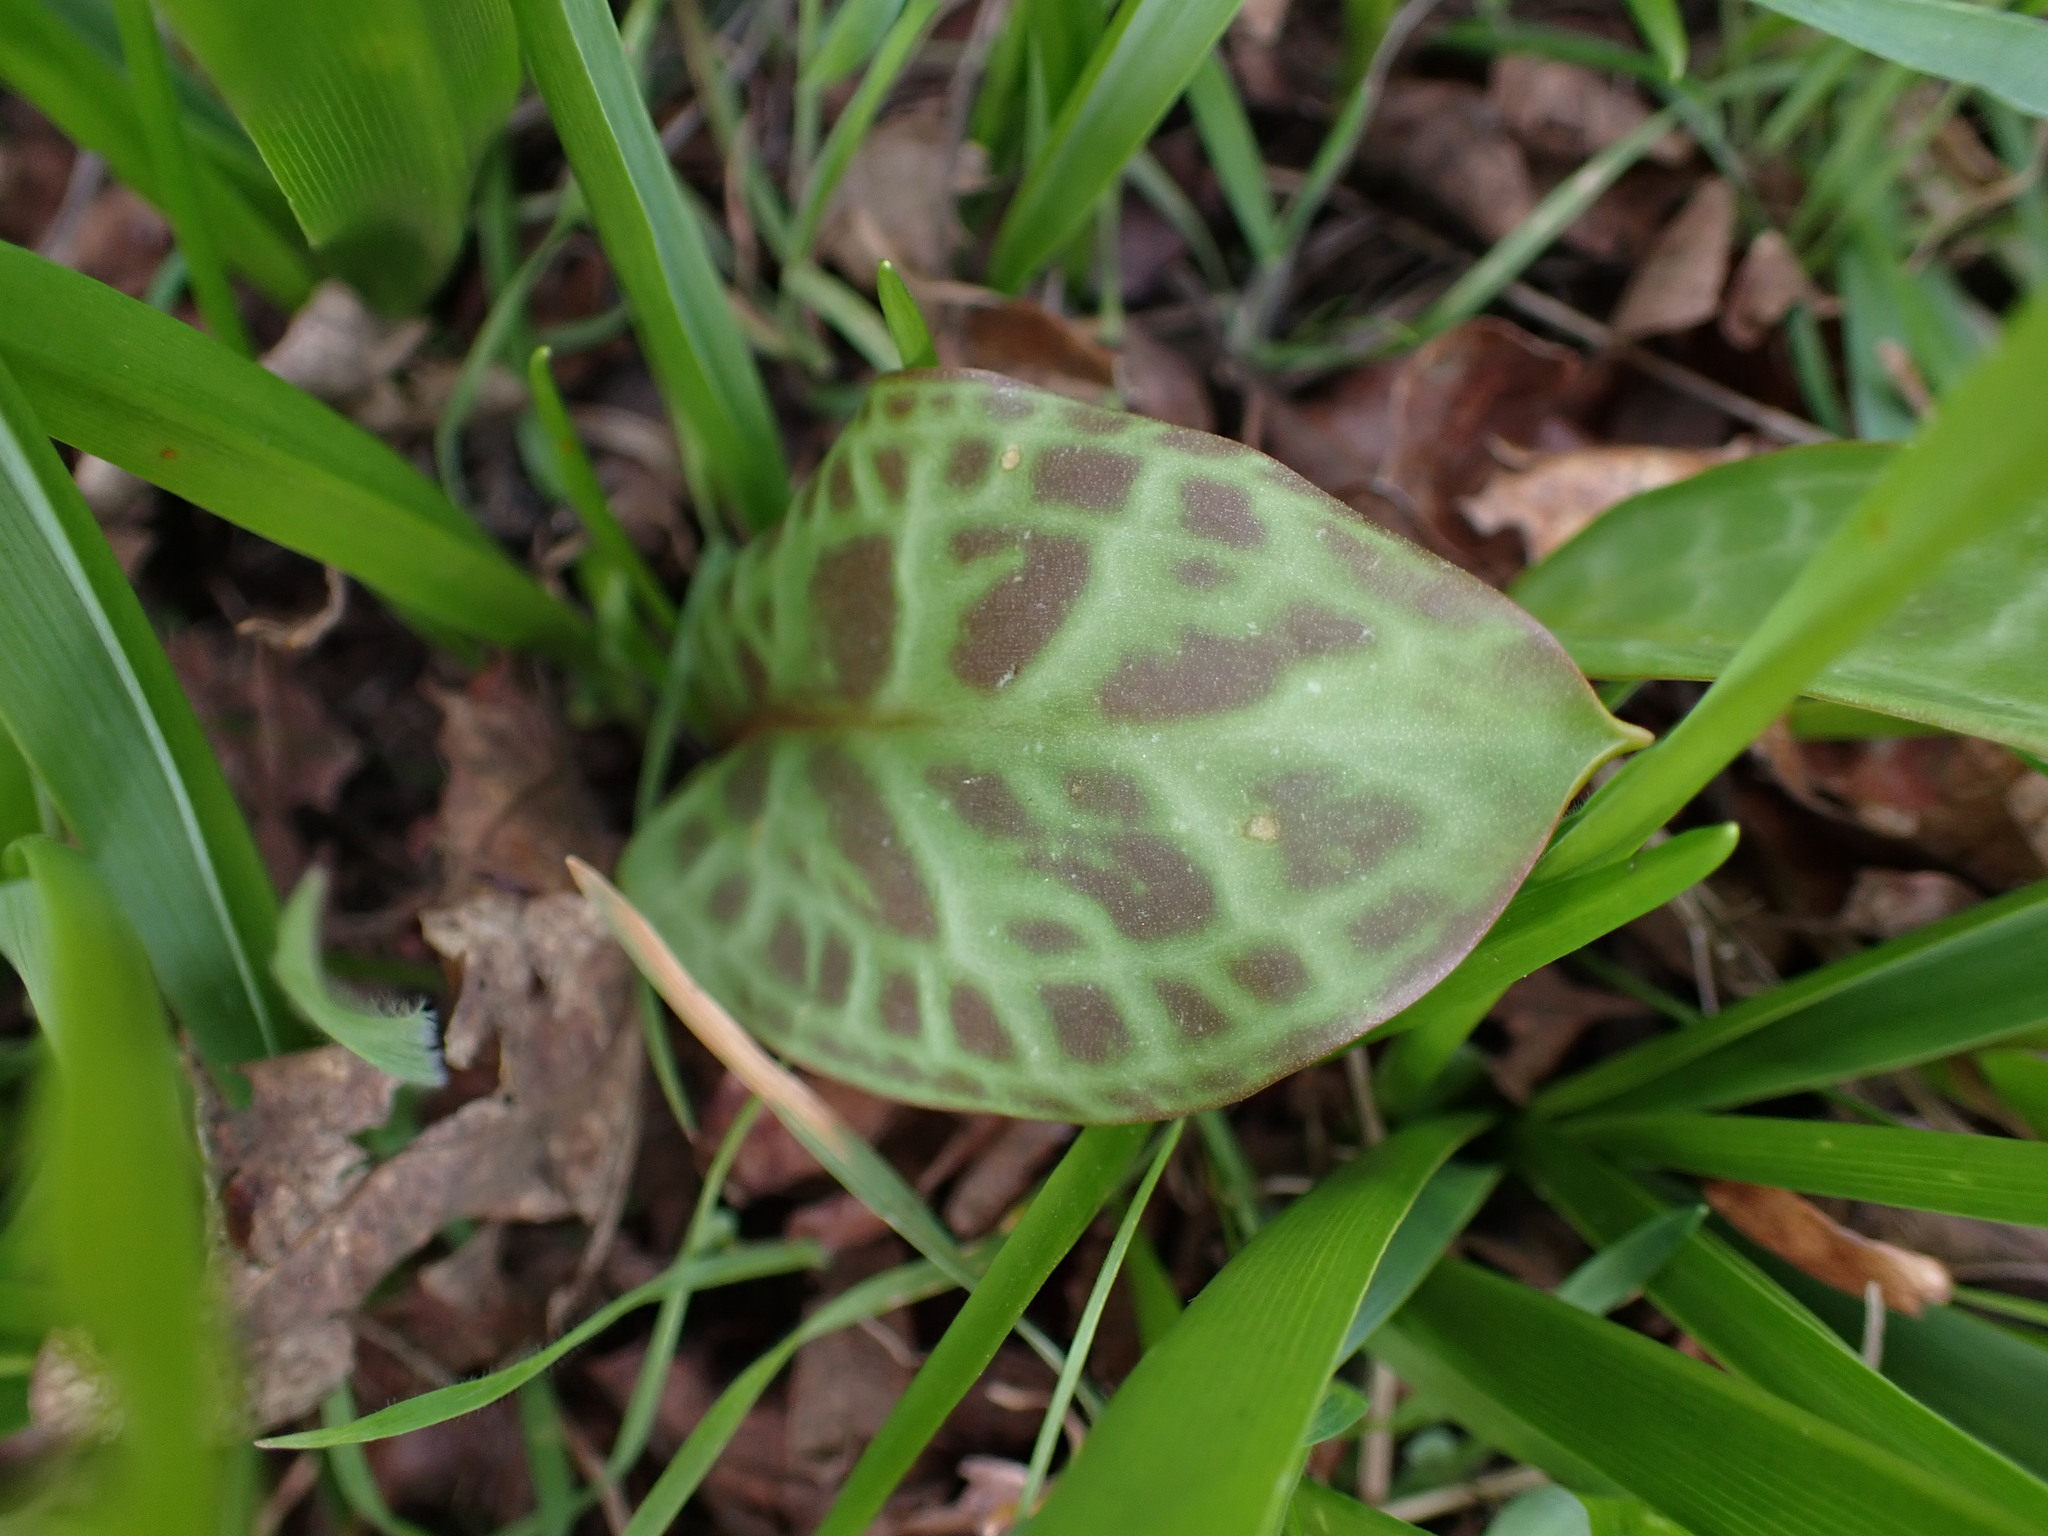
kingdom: Plantae
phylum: Tracheophyta
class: Liliopsida
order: Liliales
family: Liliaceae
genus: Erythronium
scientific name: Erythronium oregonum
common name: Giant adder's-tongue
